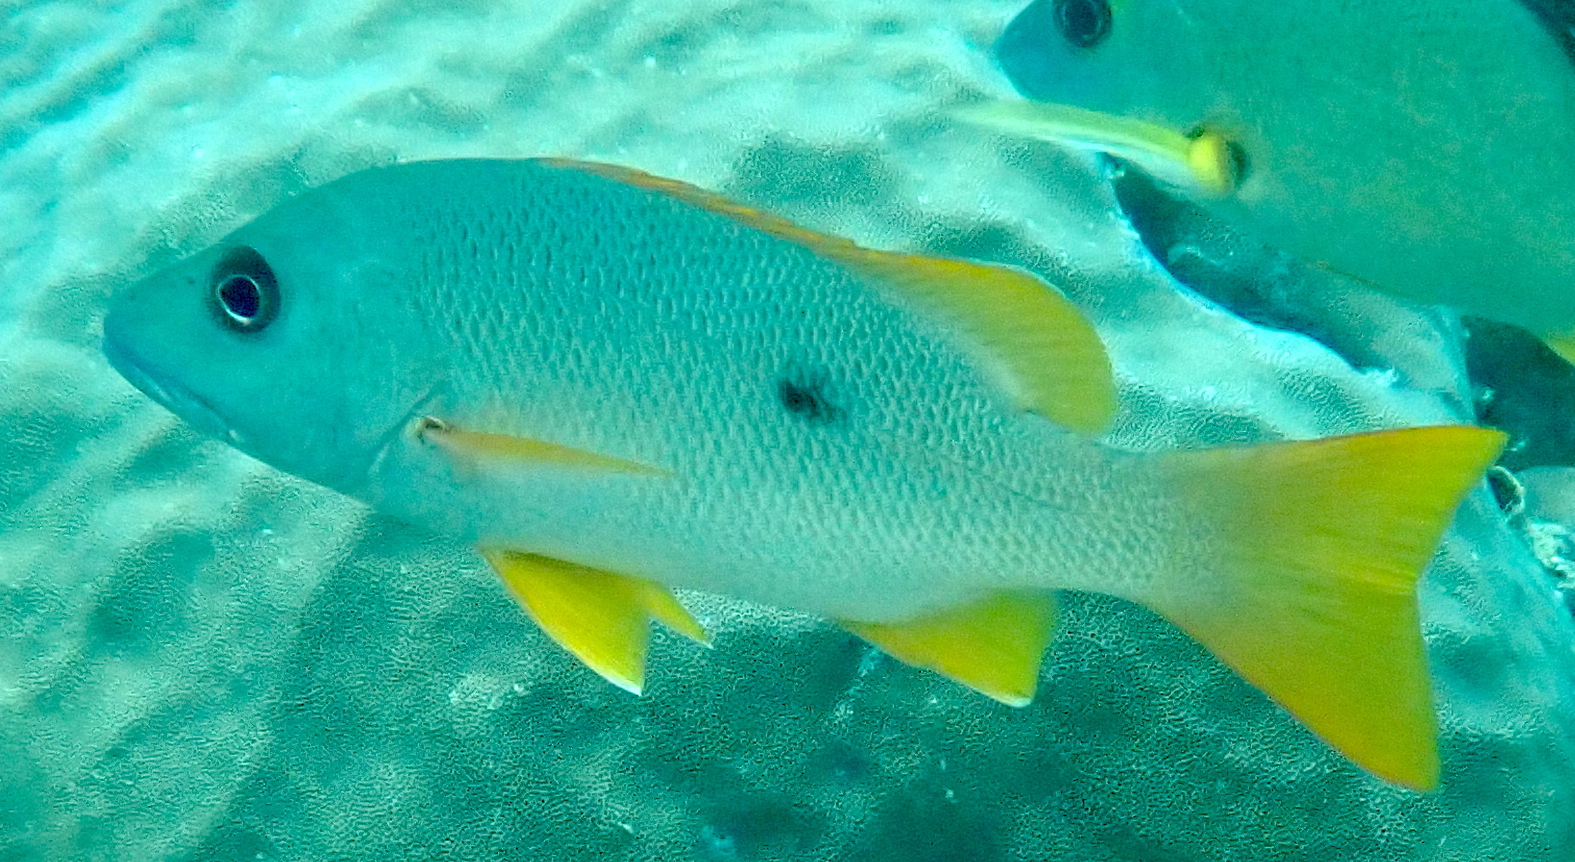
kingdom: Animalia
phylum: Chordata
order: Perciformes
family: Lutjanidae
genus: Lutjanus
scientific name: Lutjanus monostigma
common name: Onespot snapper
